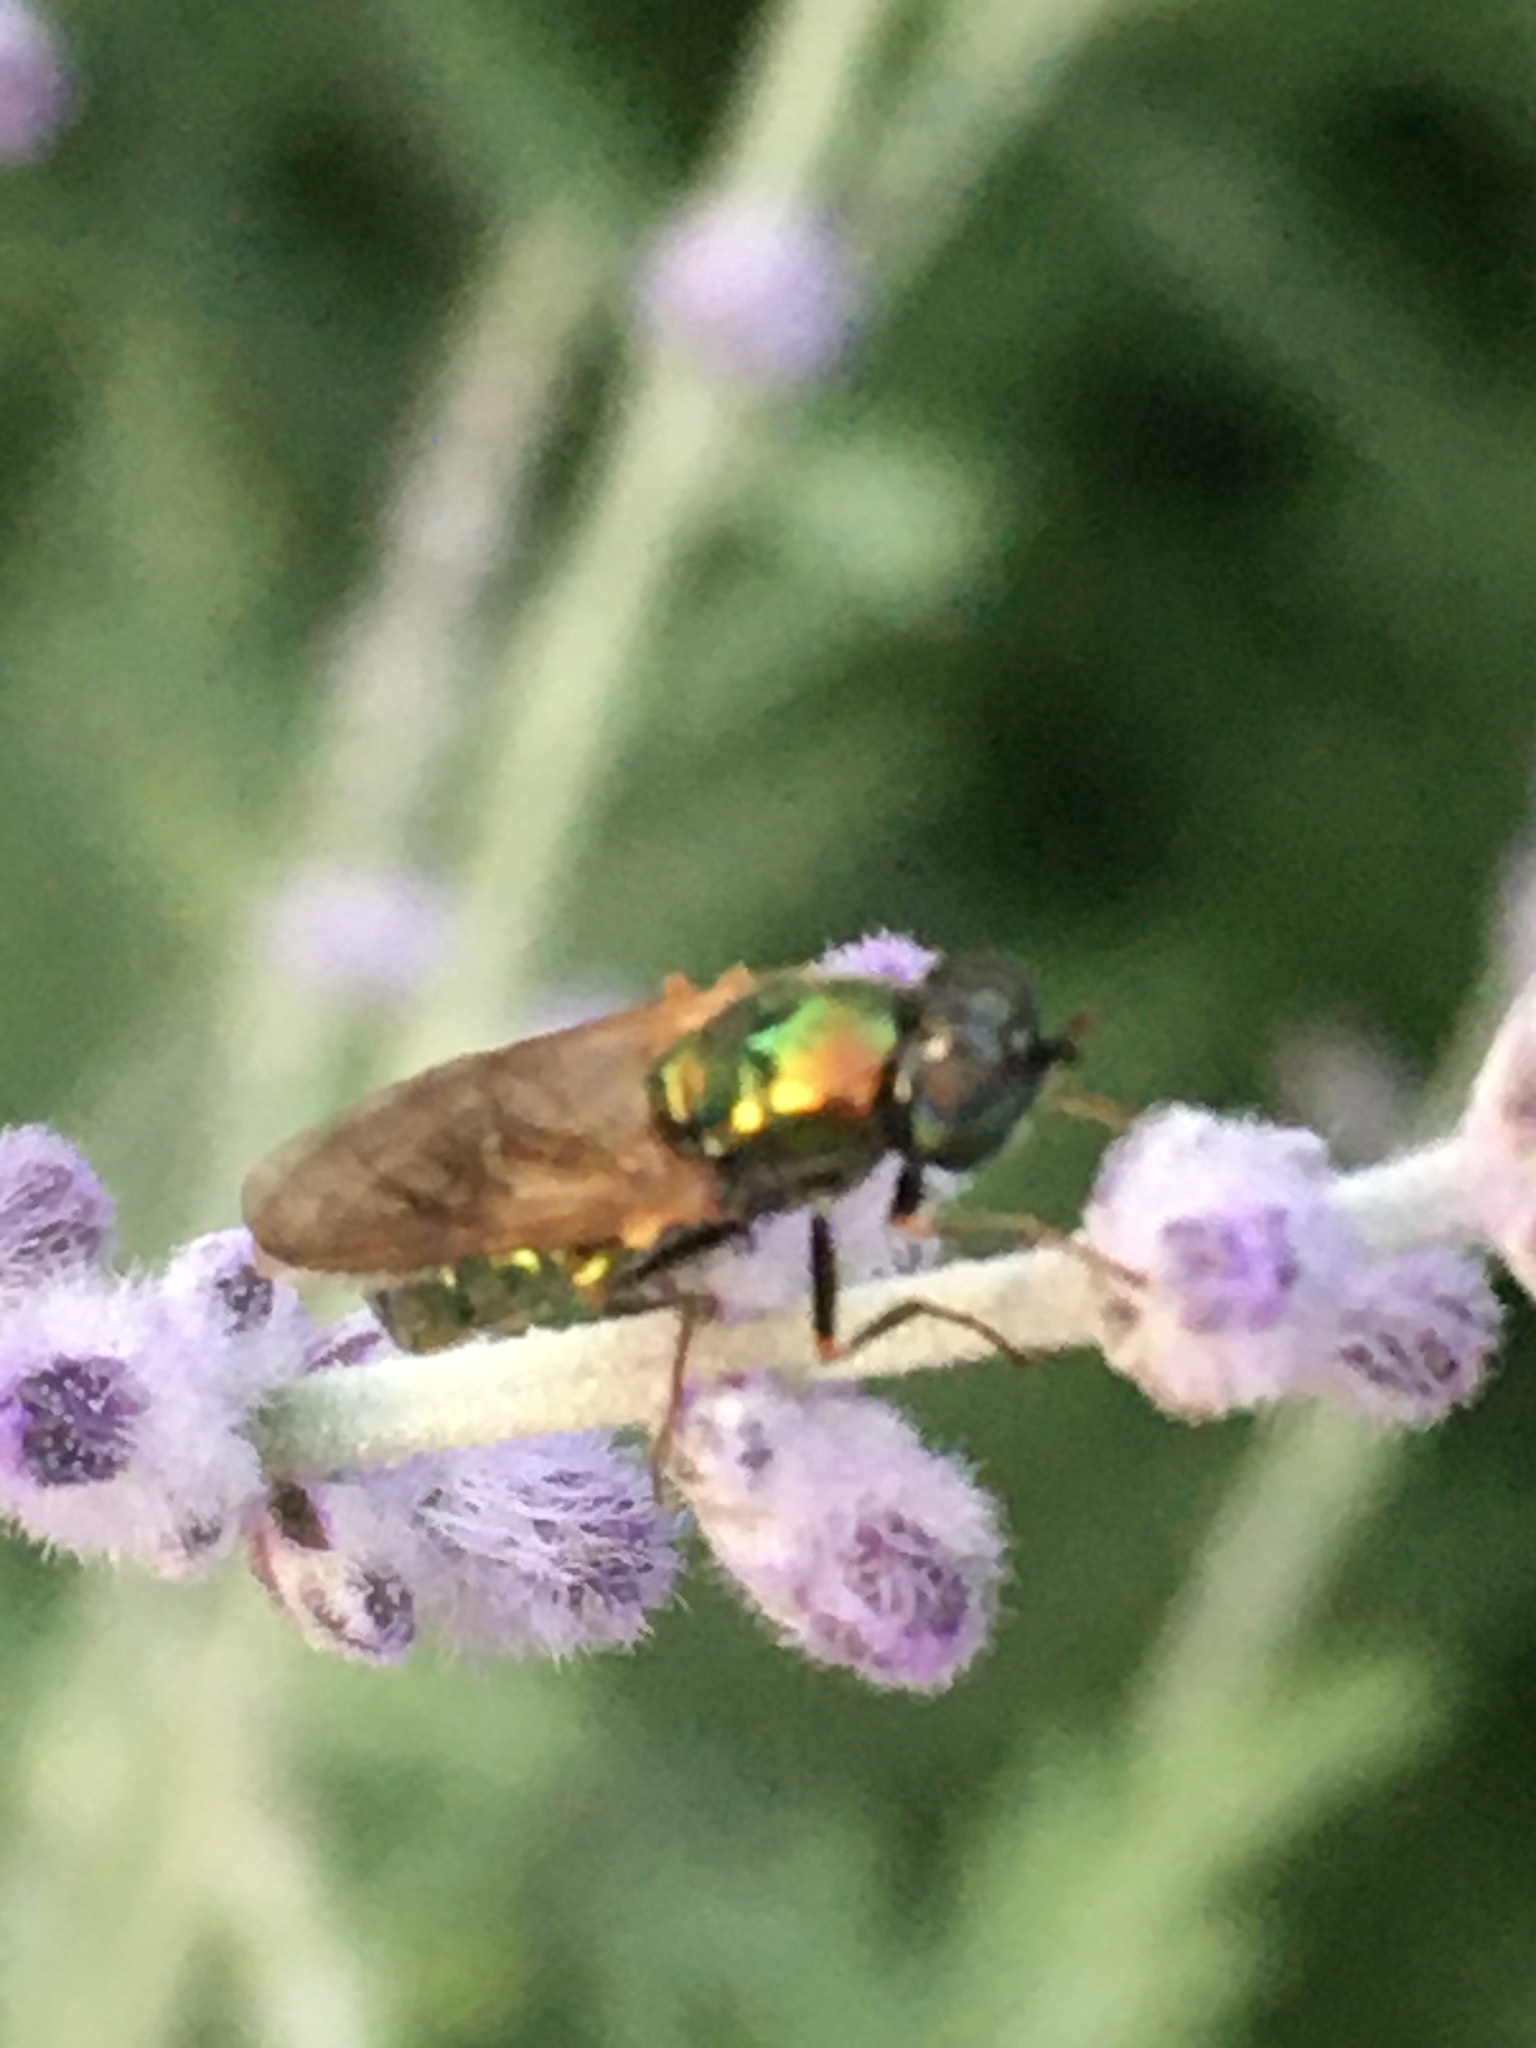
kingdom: Animalia
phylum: Arthropoda
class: Insecta
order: Diptera
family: Stratiomyidae
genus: Chloromyia
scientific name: Chloromyia formosa
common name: Soldier fly
